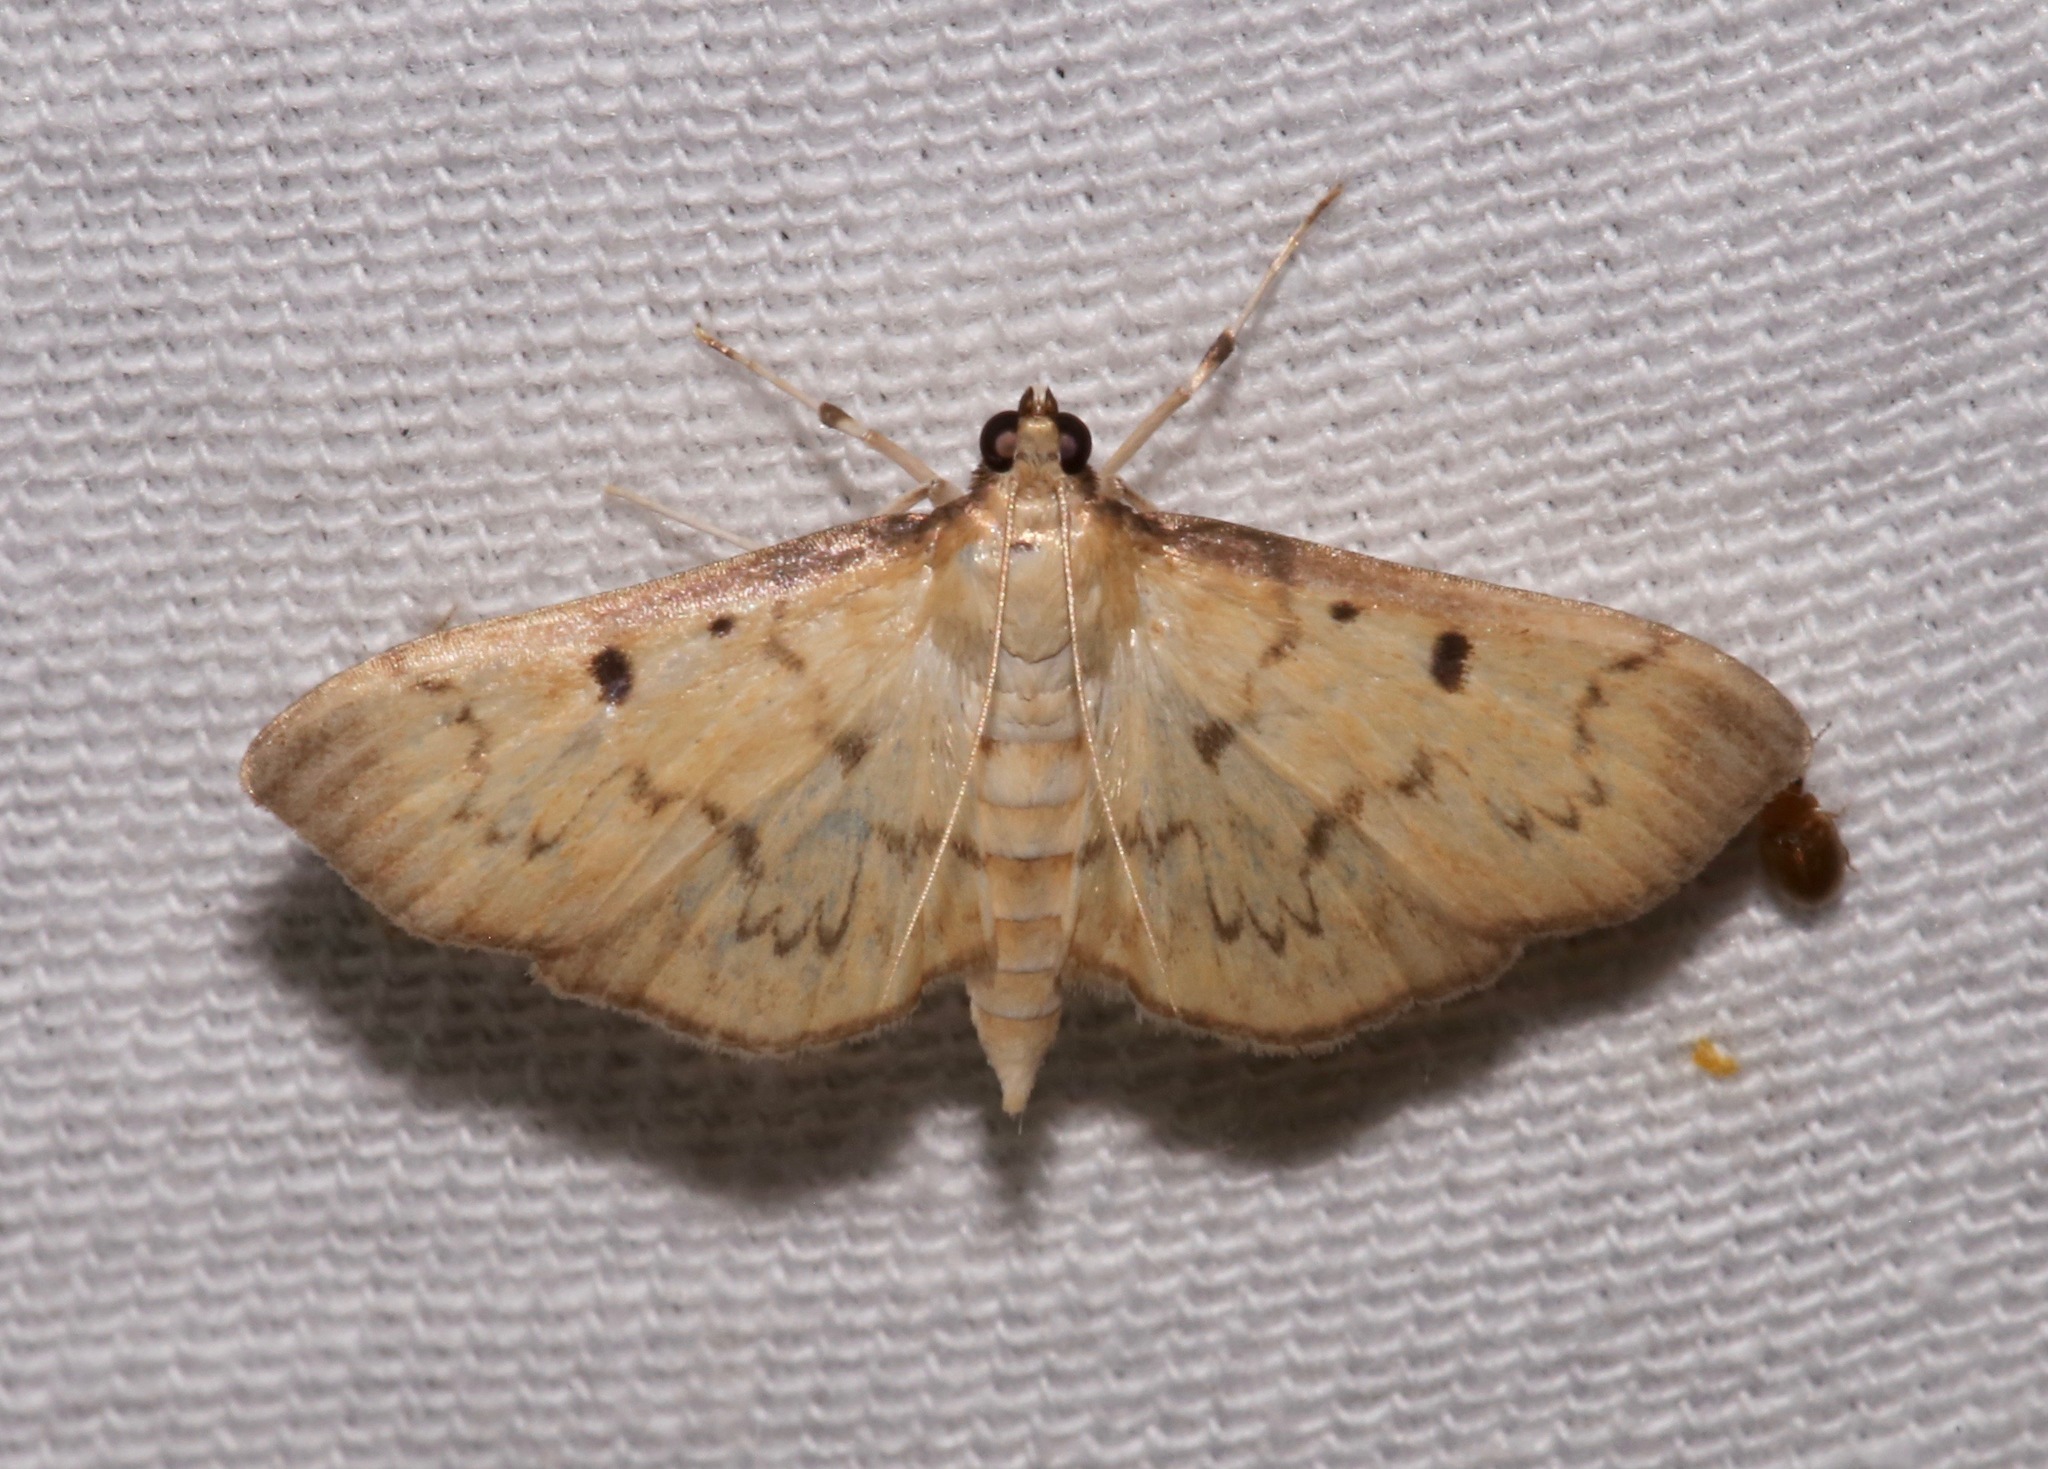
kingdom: Animalia
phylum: Arthropoda
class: Insecta
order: Lepidoptera
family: Crambidae
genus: Herpetogramma
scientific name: Herpetogramma fluctuosalis
